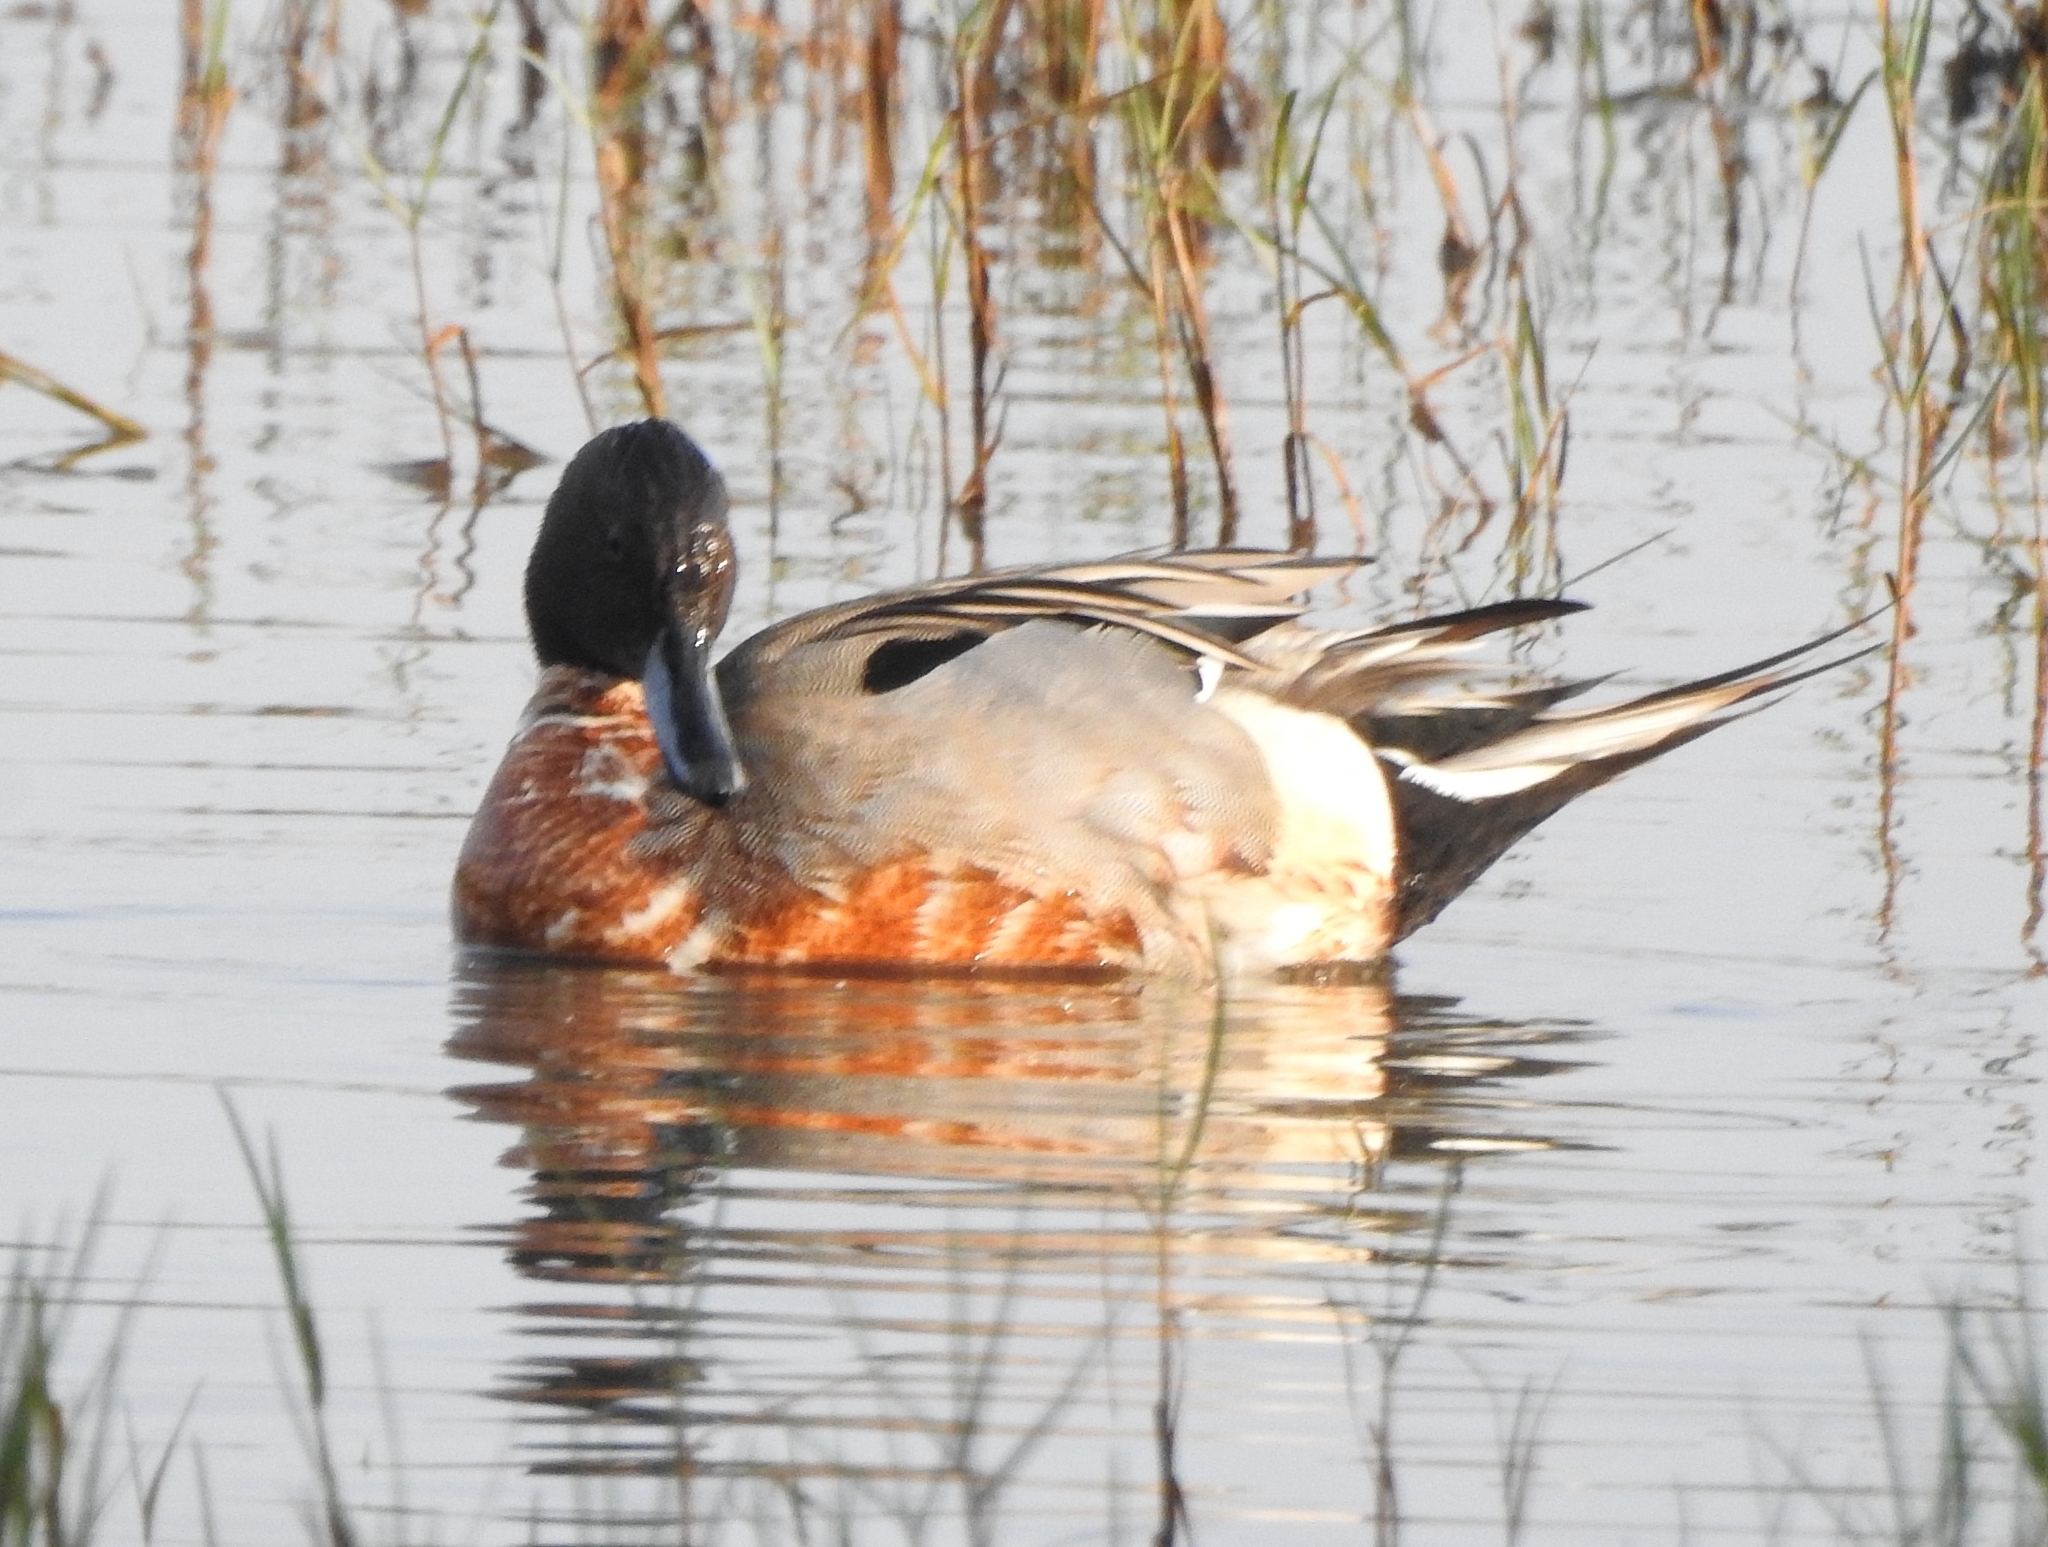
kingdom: Animalia
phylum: Chordata
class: Aves
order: Anseriformes
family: Anatidae
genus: Anas
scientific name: Anas acuta
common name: Northern pintail
